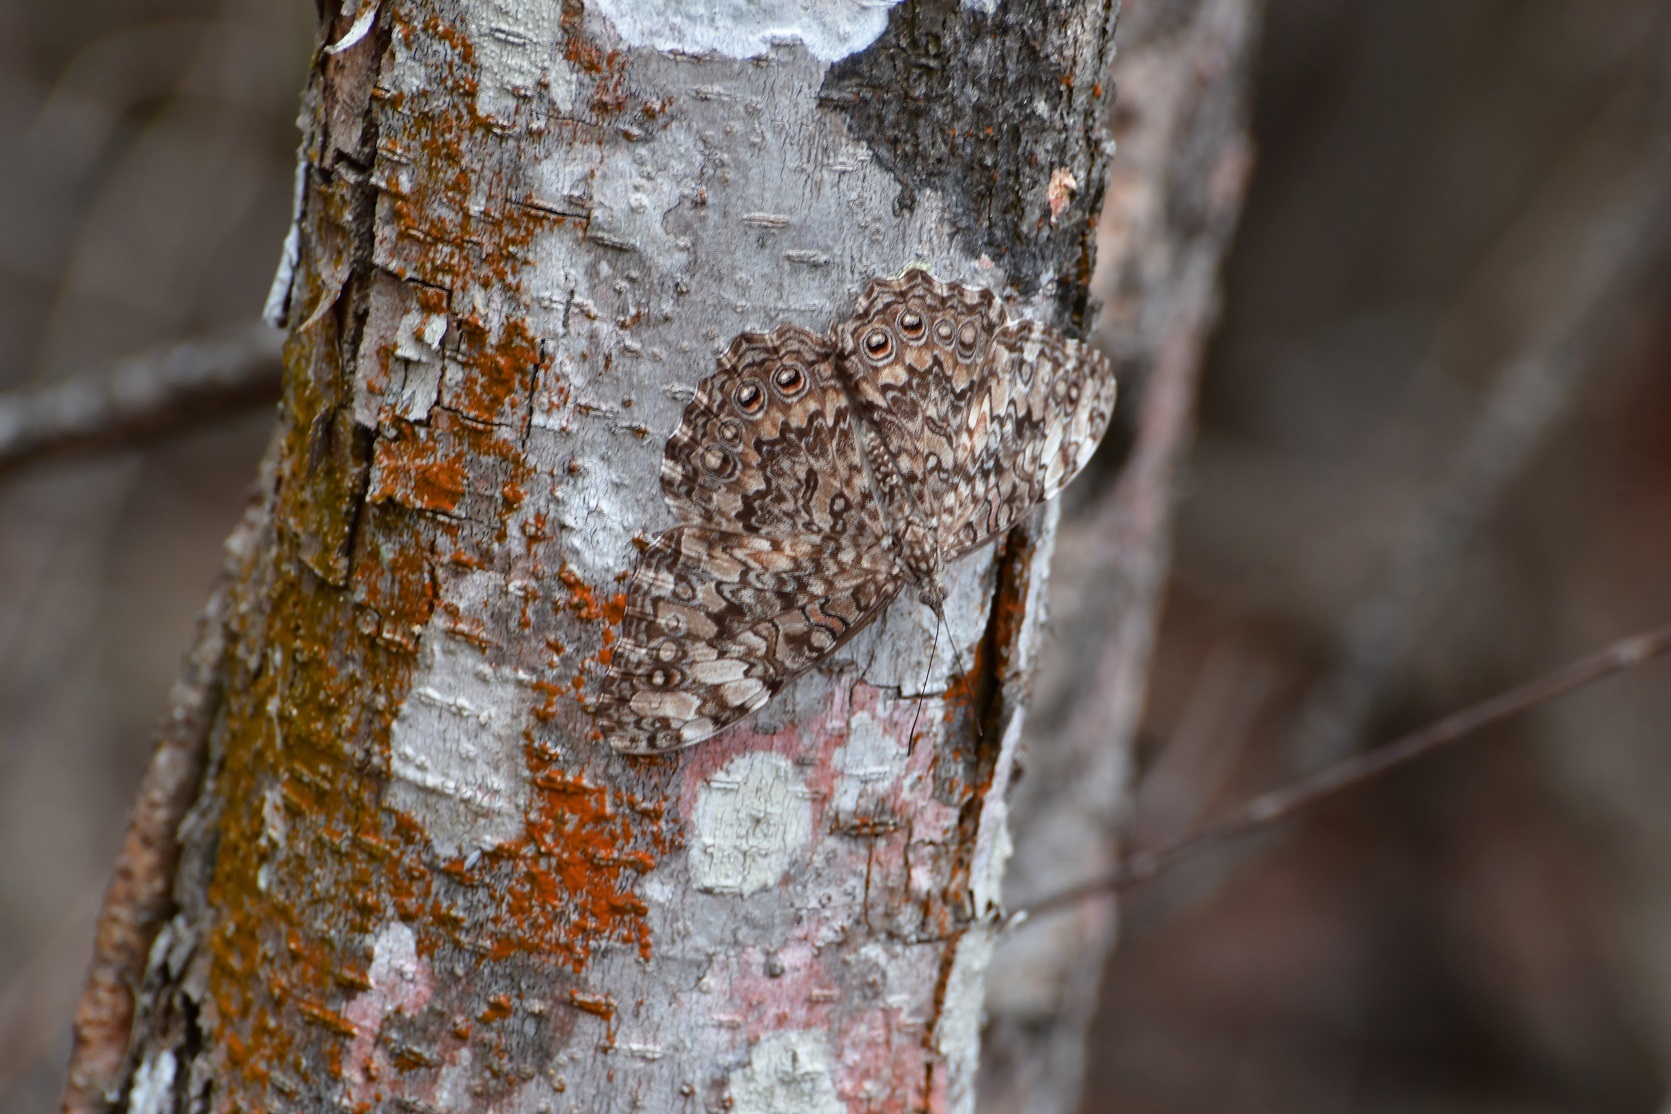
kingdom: Animalia
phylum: Arthropoda
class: Insecta
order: Lepidoptera
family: Nymphalidae
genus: Hamadryas
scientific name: Hamadryas februa
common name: Gray cracker
